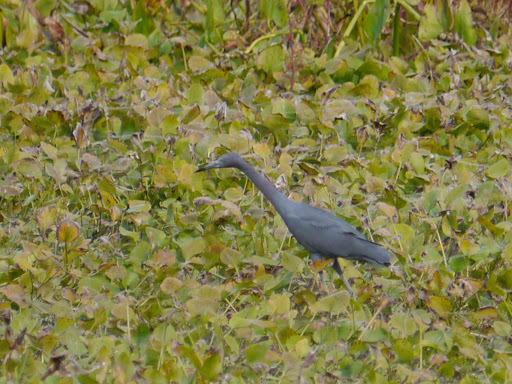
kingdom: Animalia
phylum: Chordata
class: Aves
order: Pelecaniformes
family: Ardeidae
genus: Egretta
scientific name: Egretta caerulea
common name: Little blue heron
